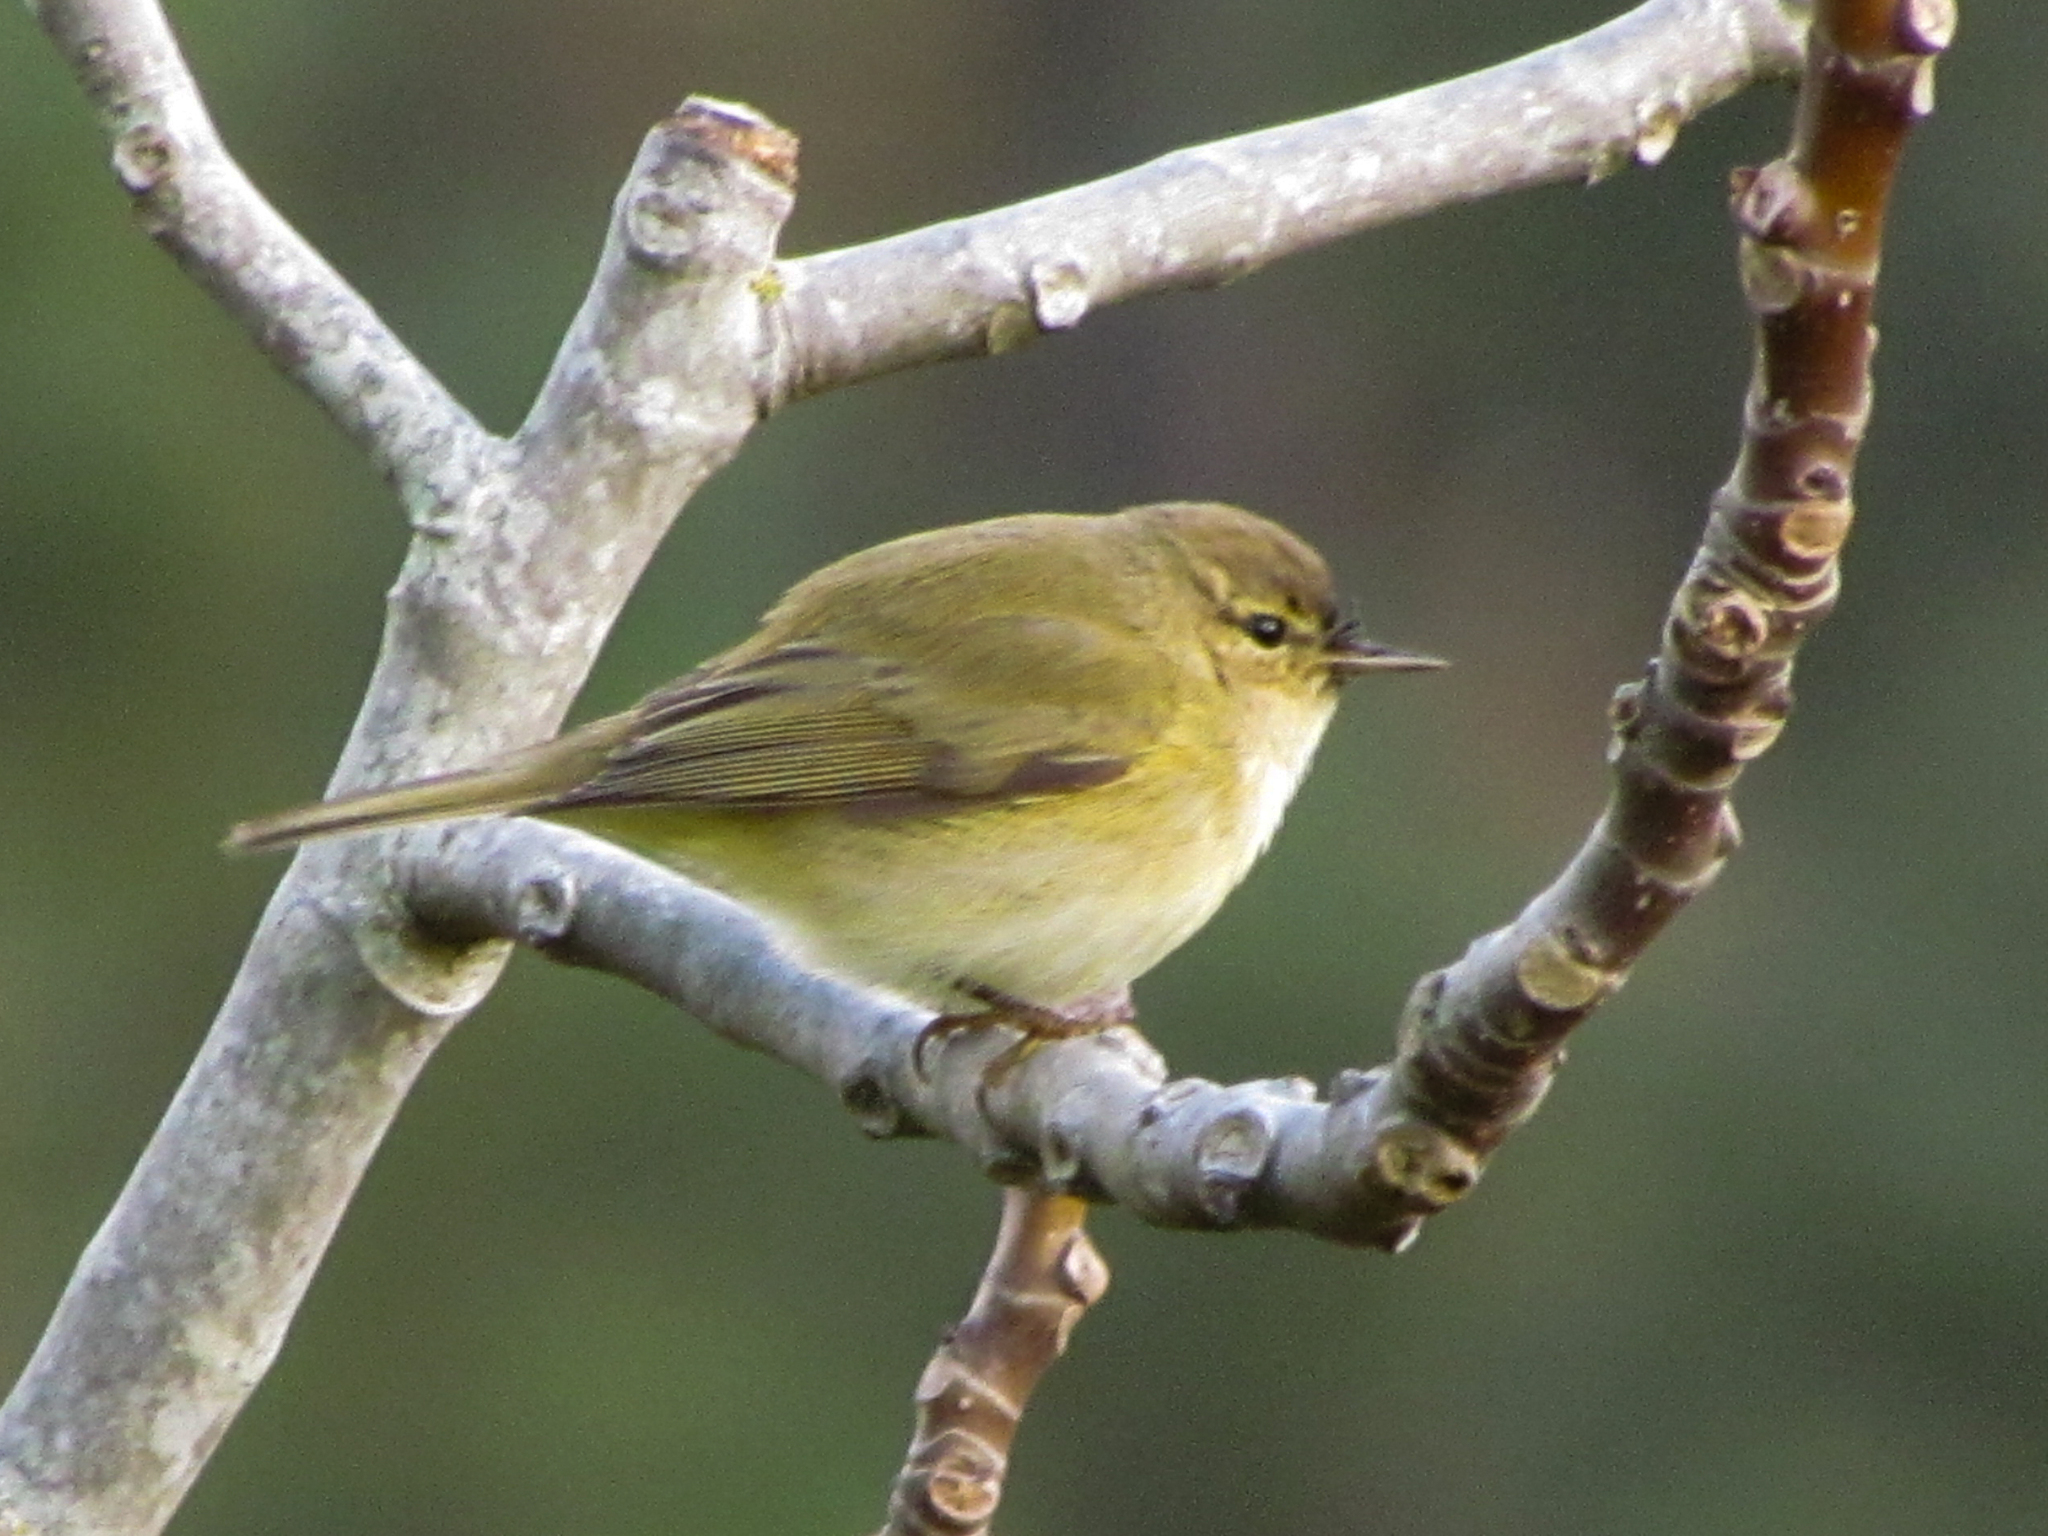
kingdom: Animalia
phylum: Chordata
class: Aves
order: Passeriformes
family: Phylloscopidae
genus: Phylloscopus
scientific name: Phylloscopus collybita
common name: Common chiffchaff
